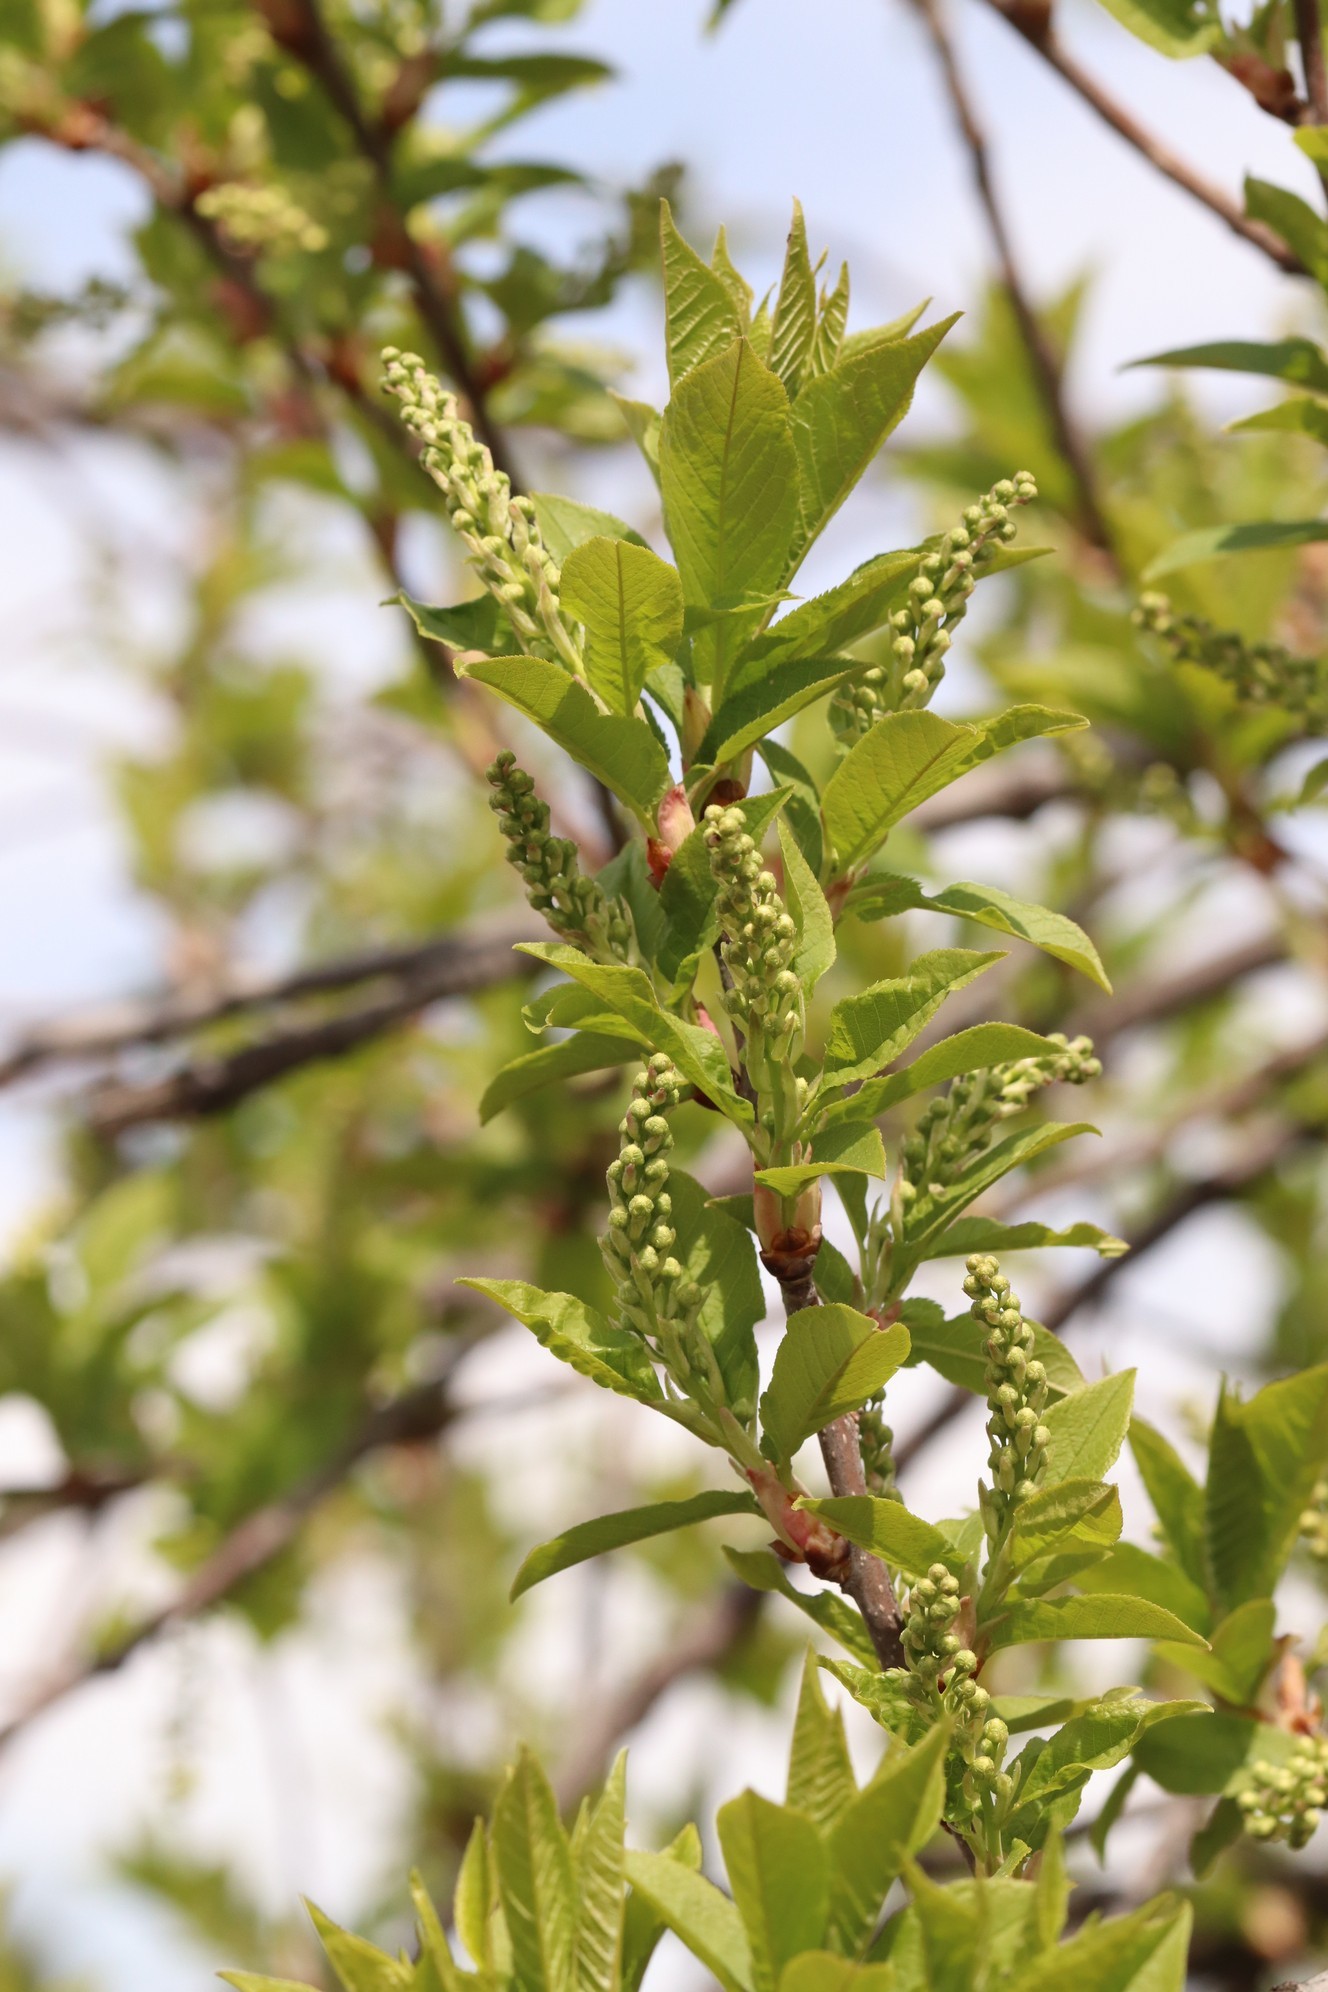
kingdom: Plantae
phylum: Tracheophyta
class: Magnoliopsida
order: Rosales
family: Rosaceae
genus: Prunus
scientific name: Prunus padus
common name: Bird cherry
